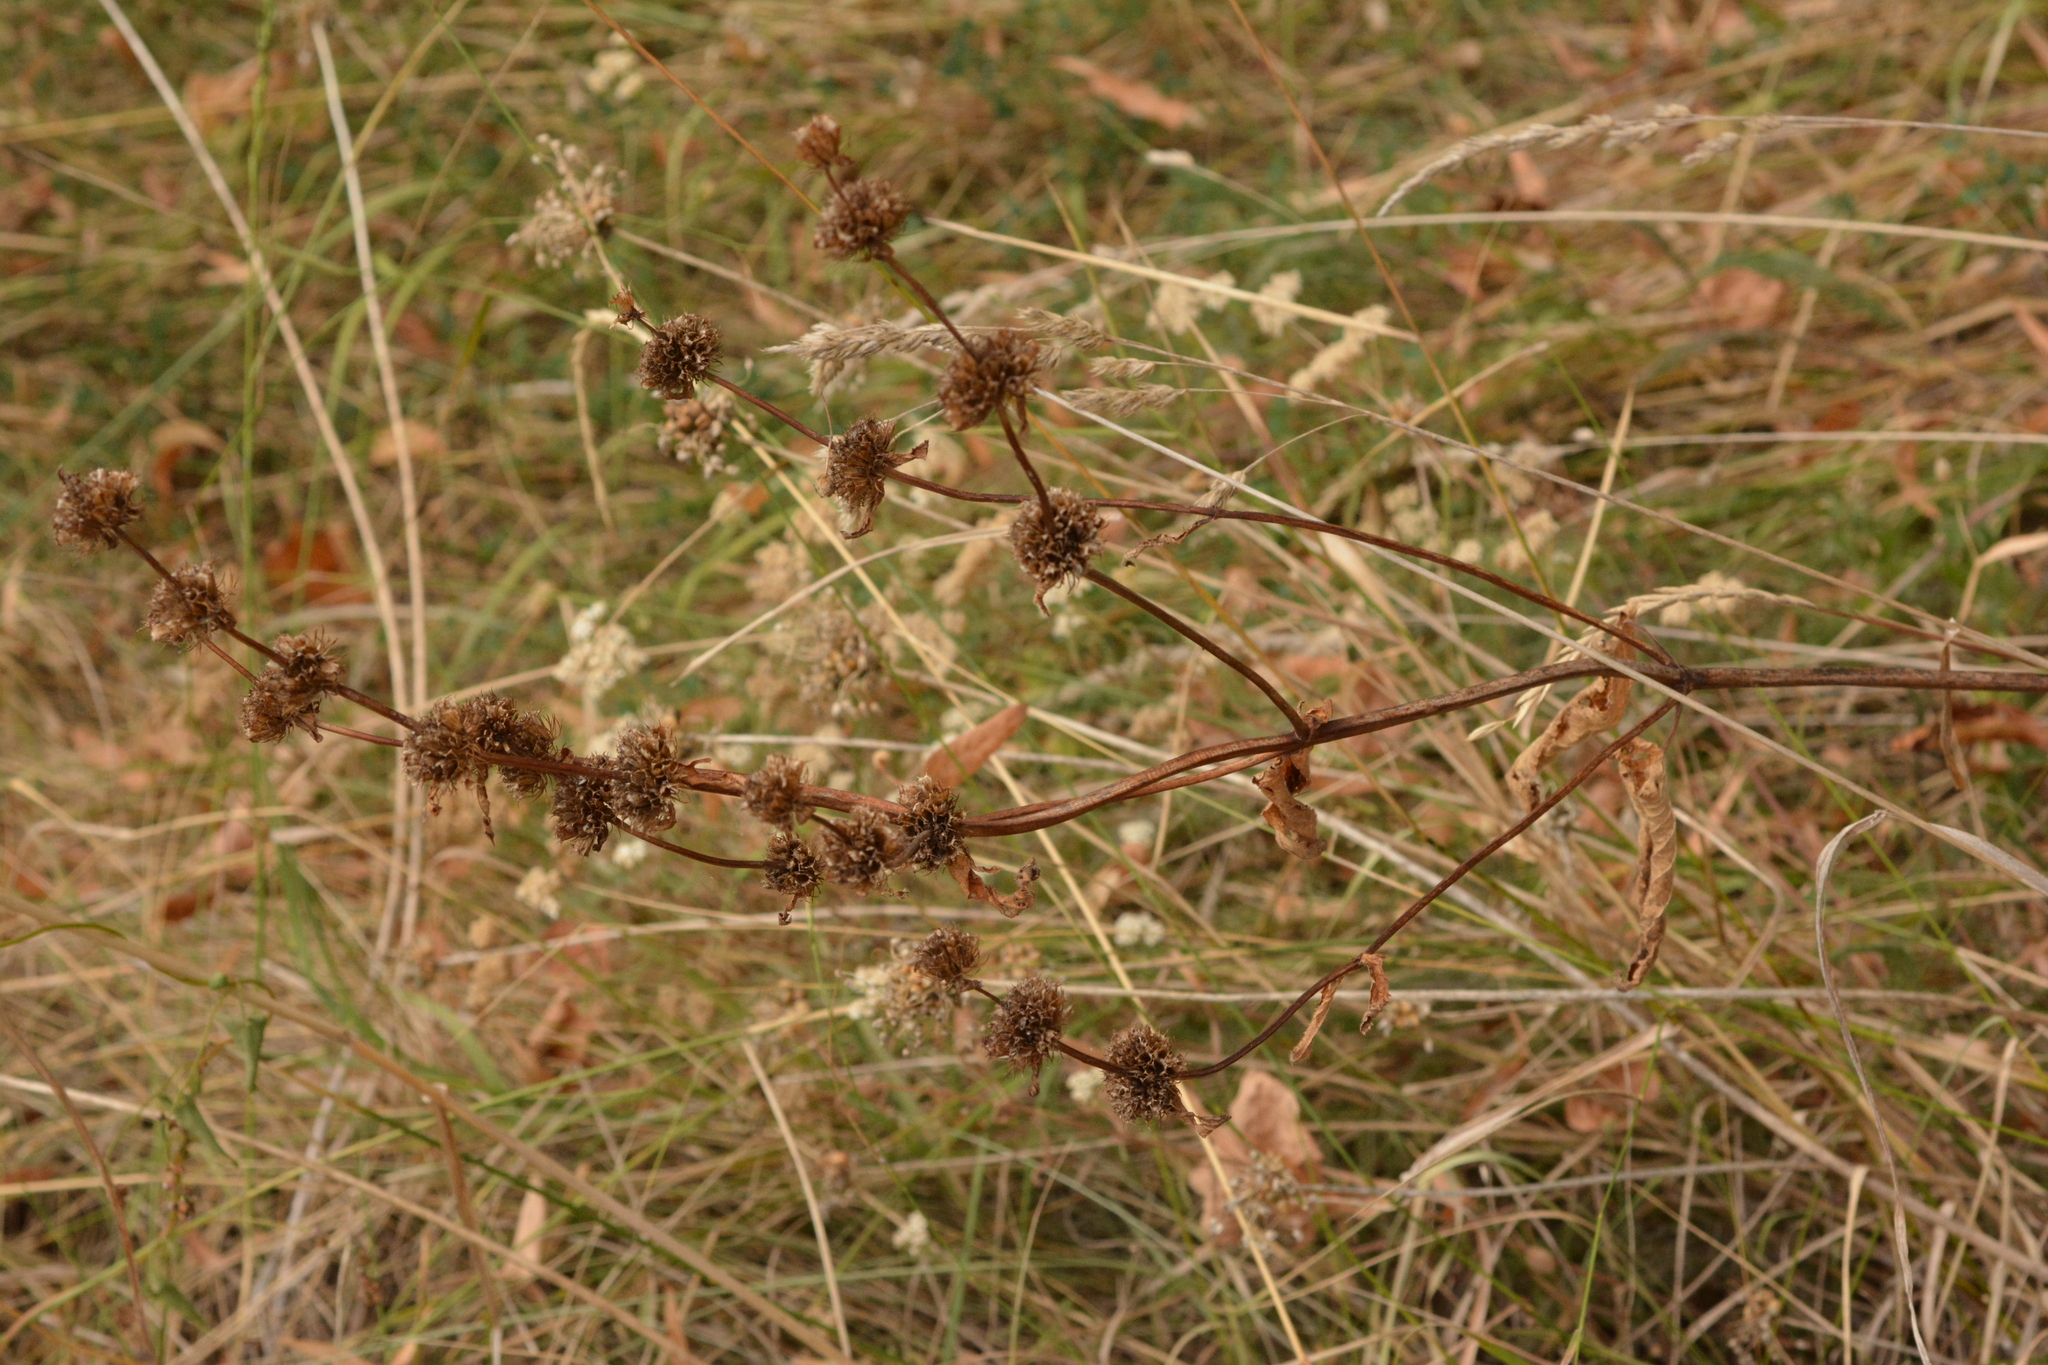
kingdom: Plantae
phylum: Tracheophyta
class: Magnoliopsida
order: Lamiales
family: Lamiaceae
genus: Phlomoides
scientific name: Phlomoides tuberosa
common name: Tuberous jerusalem sage
